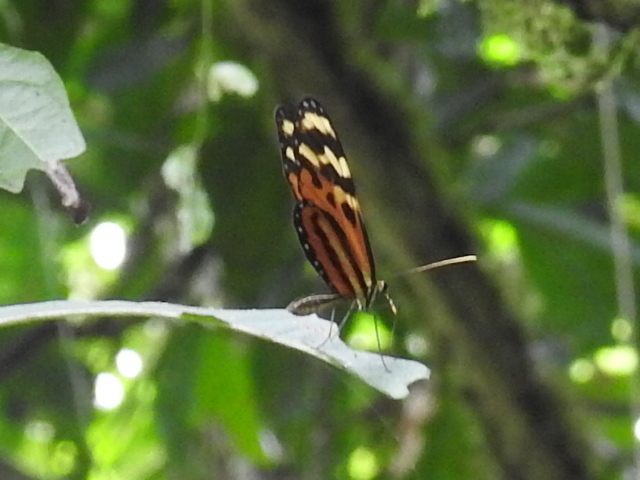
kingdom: Animalia
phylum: Arthropoda
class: Insecta
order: Lepidoptera
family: Nymphalidae
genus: Mechanitis
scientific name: Mechanitis lysimnia
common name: Lysimnia tigerwing
